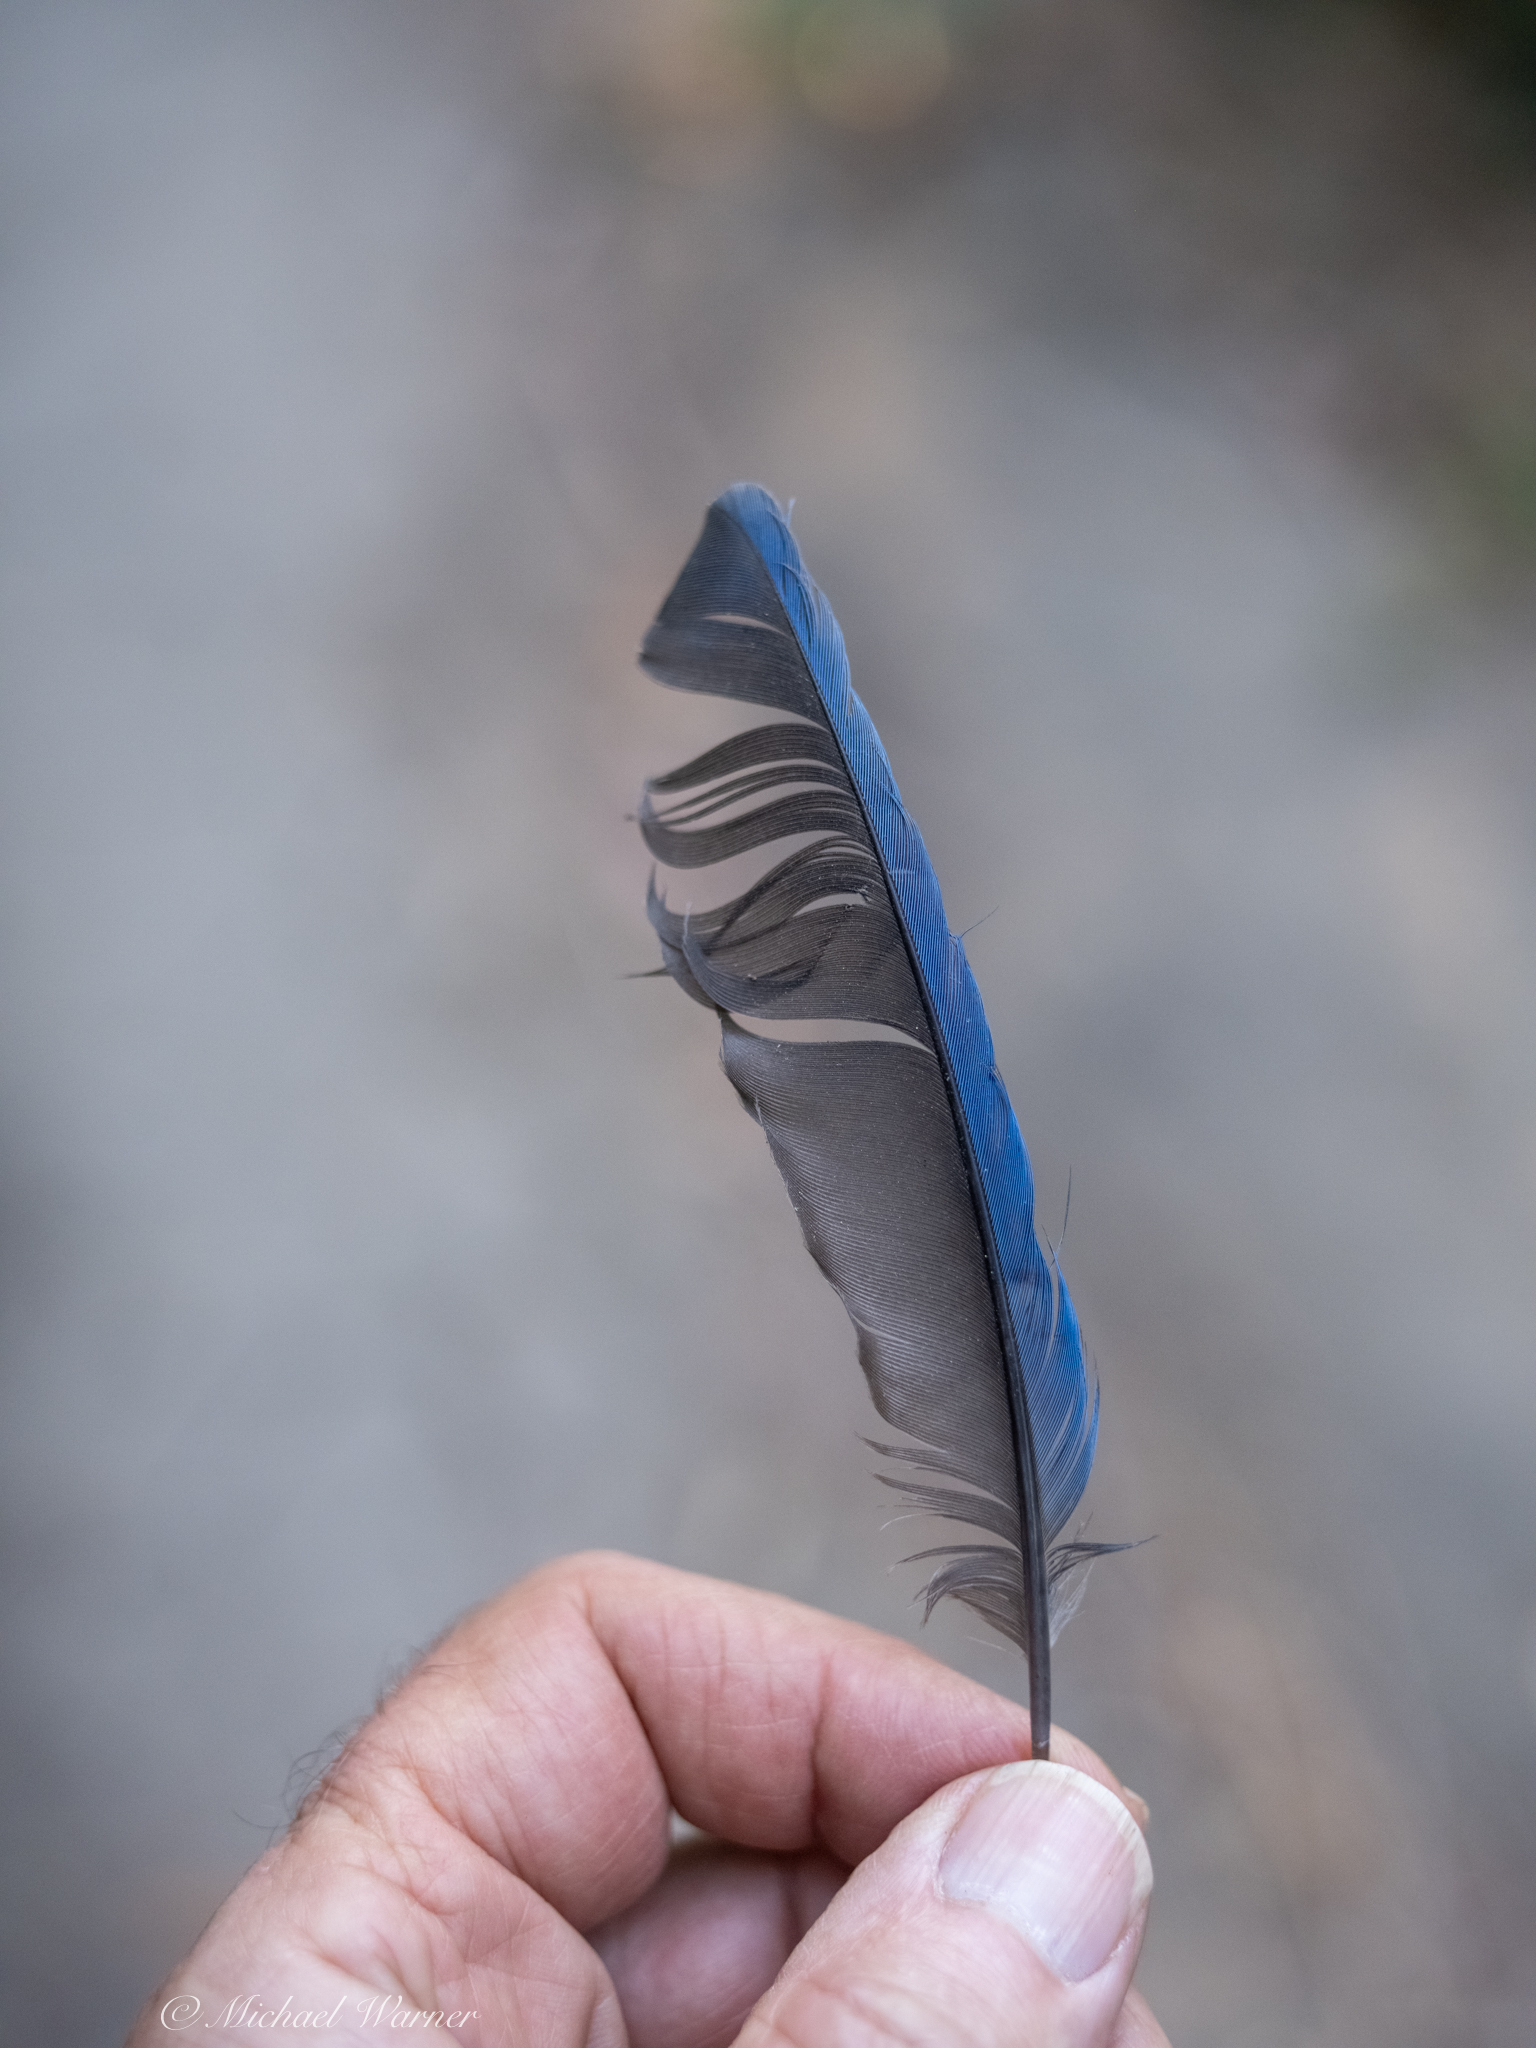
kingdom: Animalia
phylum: Chordata
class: Aves
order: Passeriformes
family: Corvidae
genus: Cyanocitta
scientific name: Cyanocitta stelleri
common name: Steller's jay
